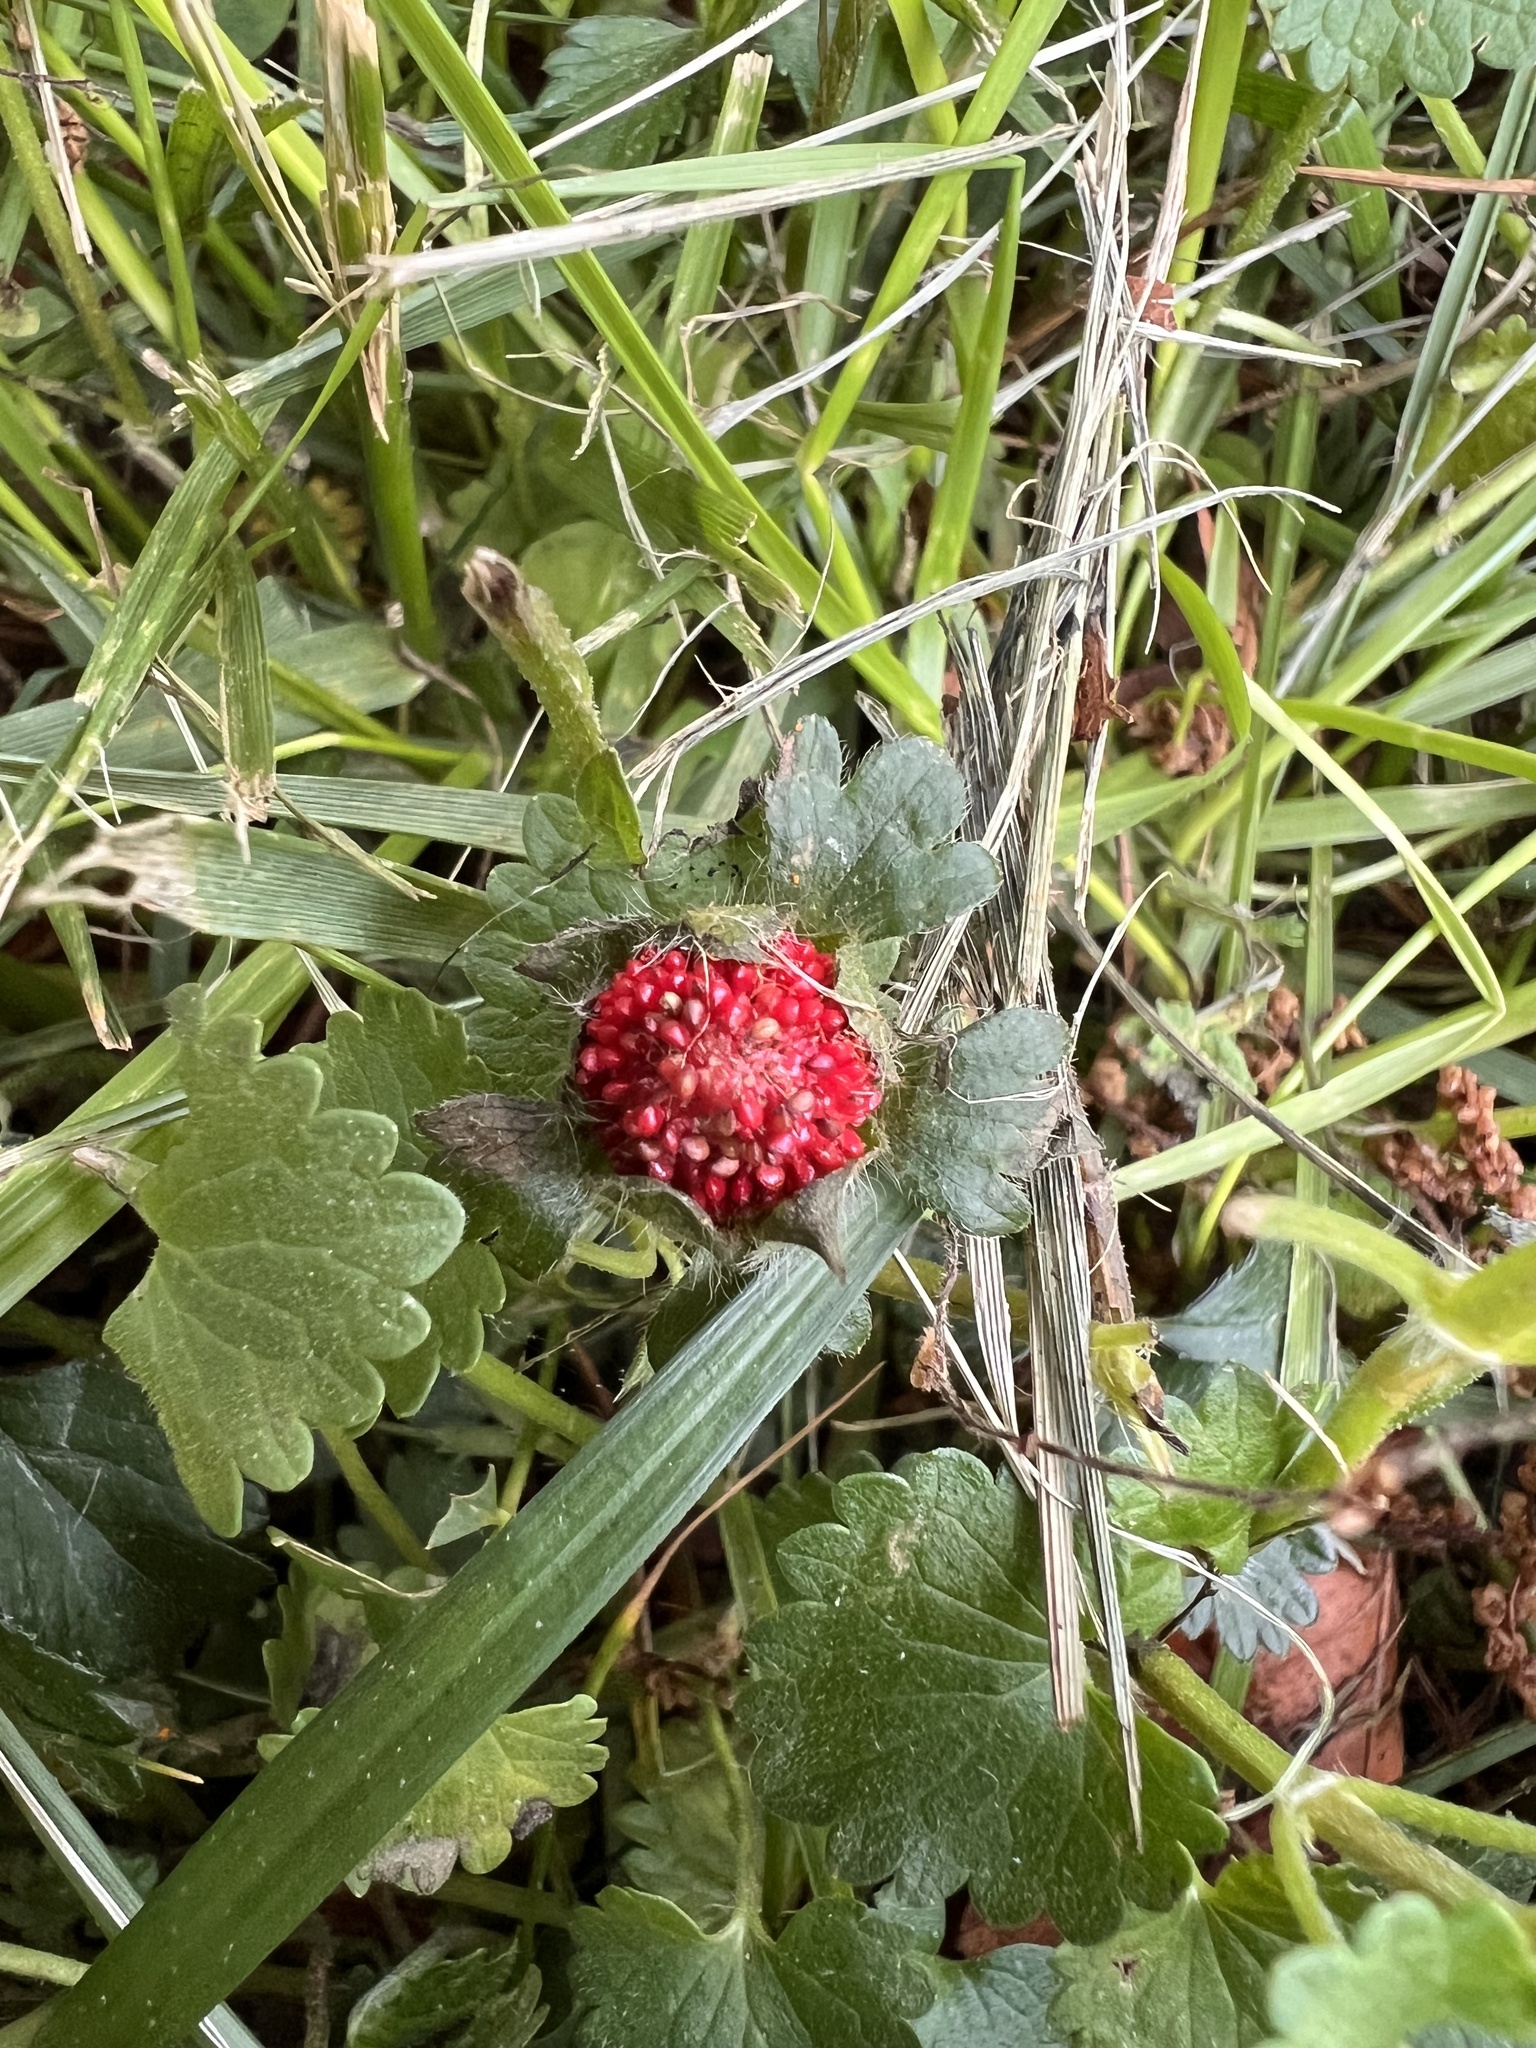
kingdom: Plantae
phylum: Tracheophyta
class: Magnoliopsida
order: Rosales
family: Rosaceae
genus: Potentilla
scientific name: Potentilla indica
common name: Yellow-flowered strawberry
